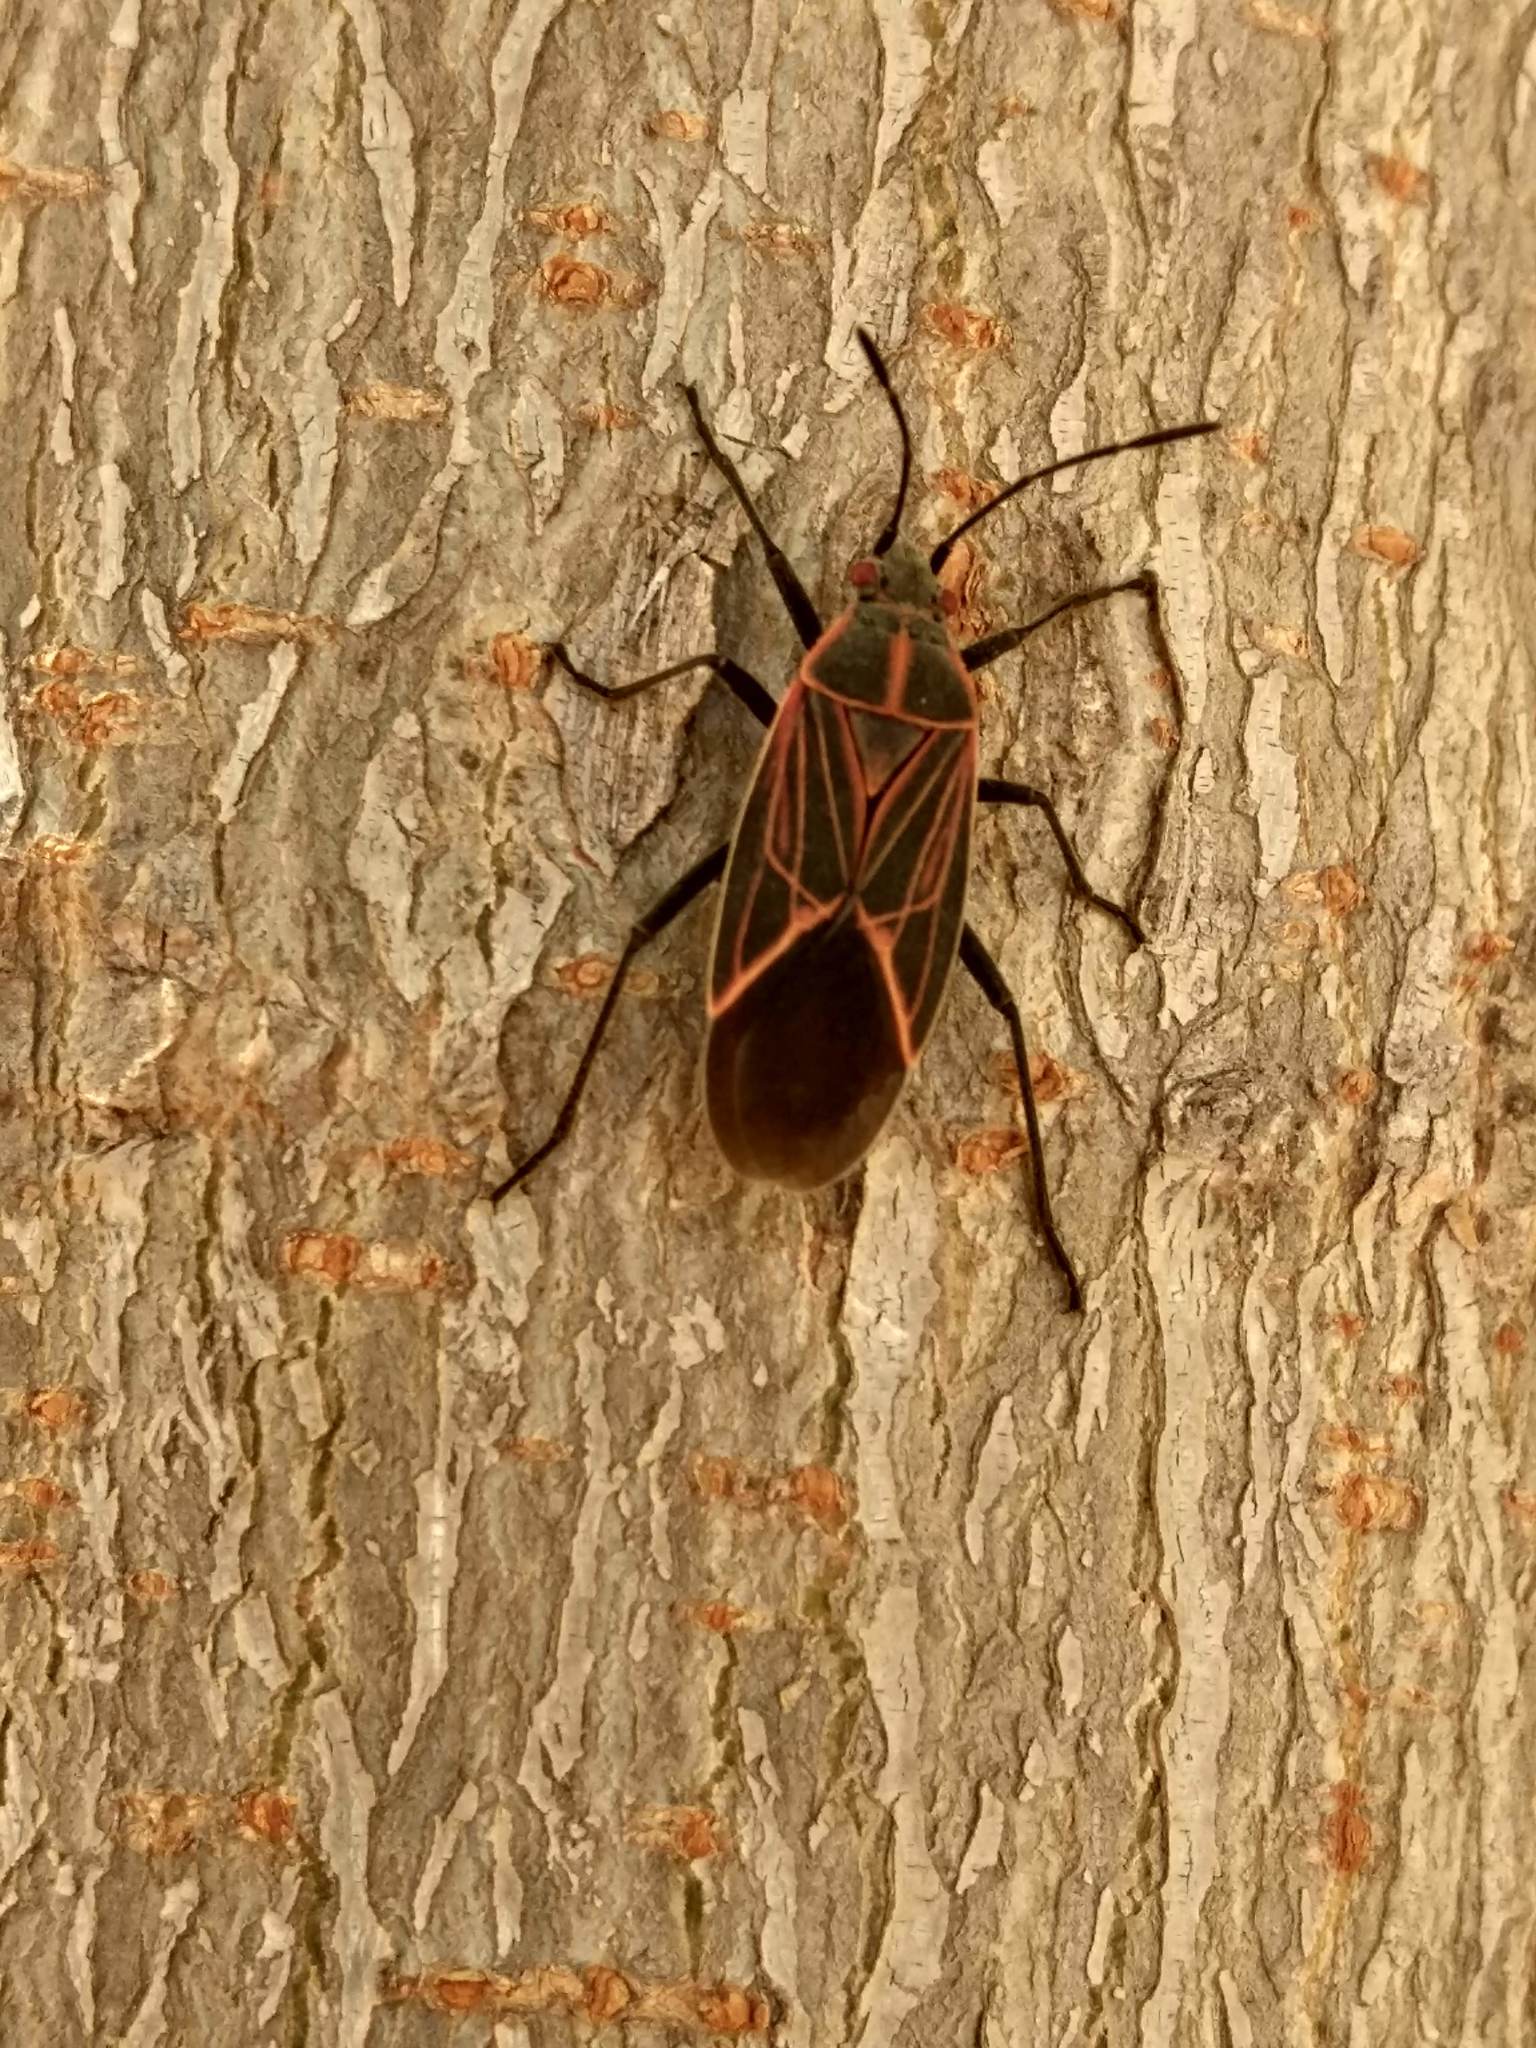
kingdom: Animalia
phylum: Arthropoda
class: Insecta
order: Hemiptera
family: Rhopalidae
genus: Boisea
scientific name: Boisea rubrolineata
